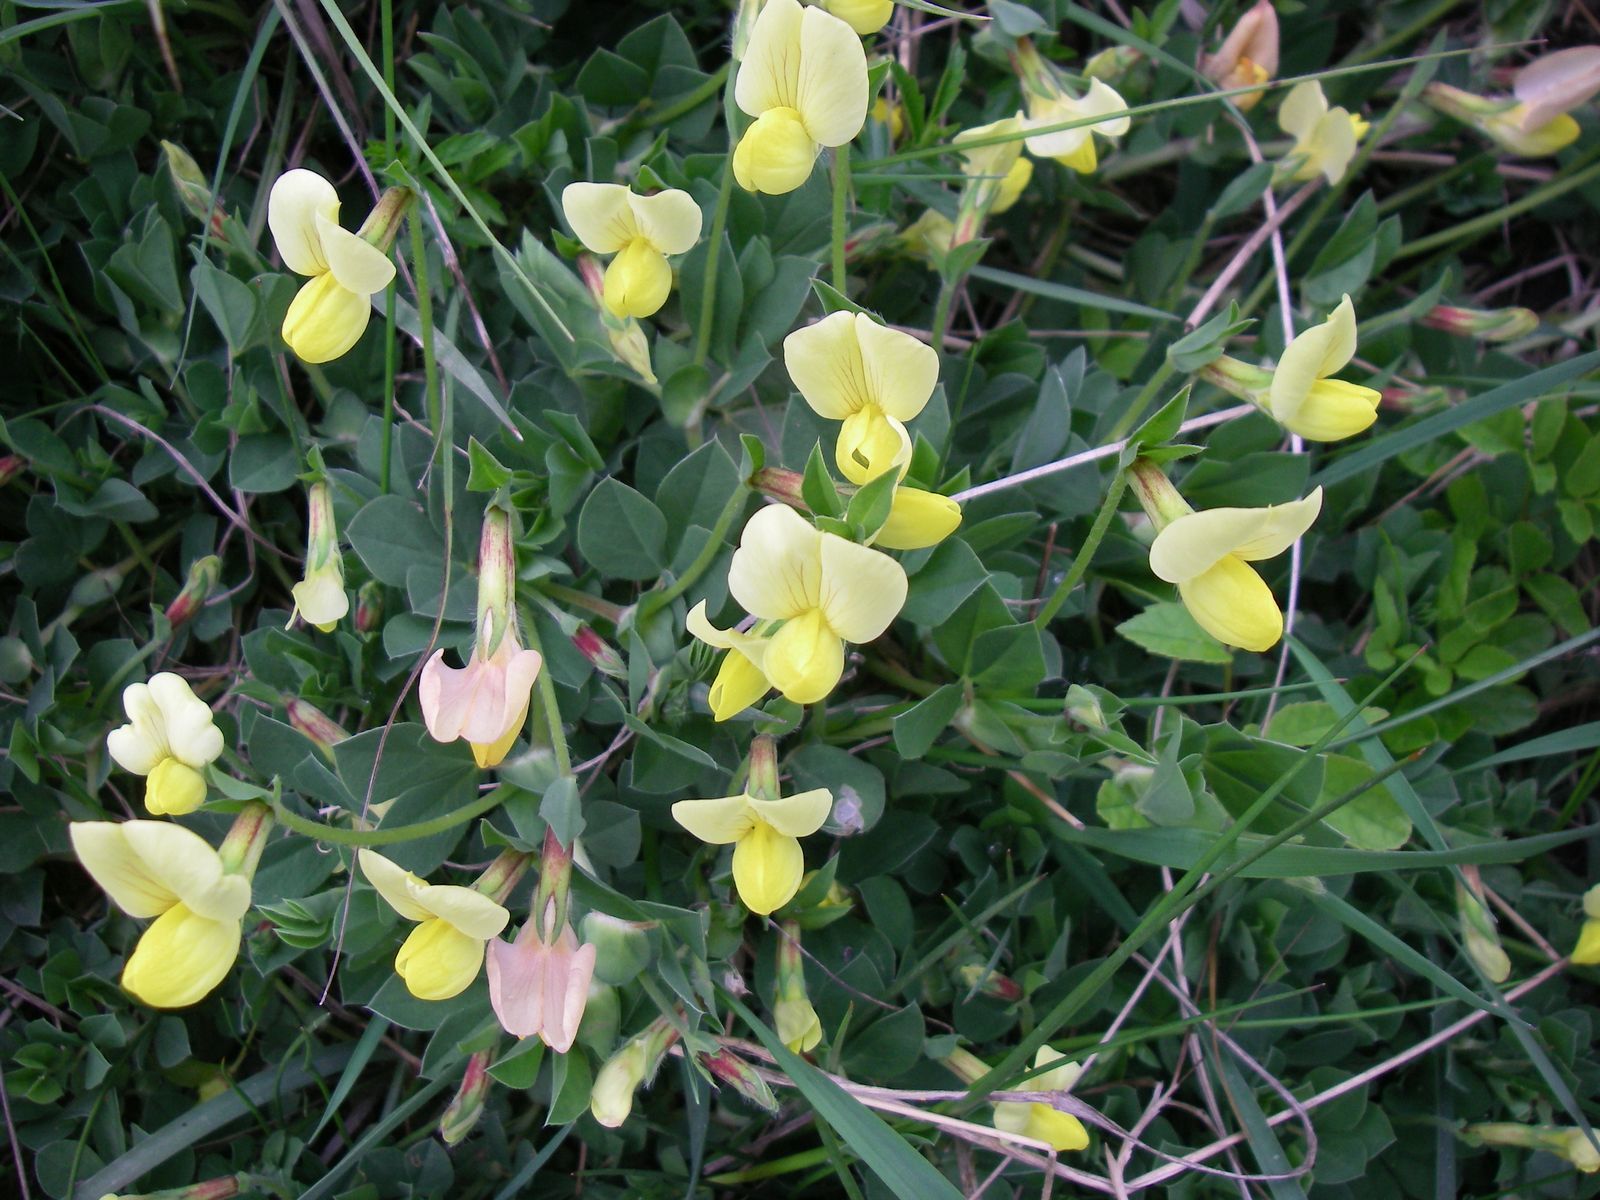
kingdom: Plantae
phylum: Tracheophyta
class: Magnoliopsida
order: Fabales
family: Fabaceae
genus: Lotus
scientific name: Lotus maritimus
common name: Dragon's-teeth
